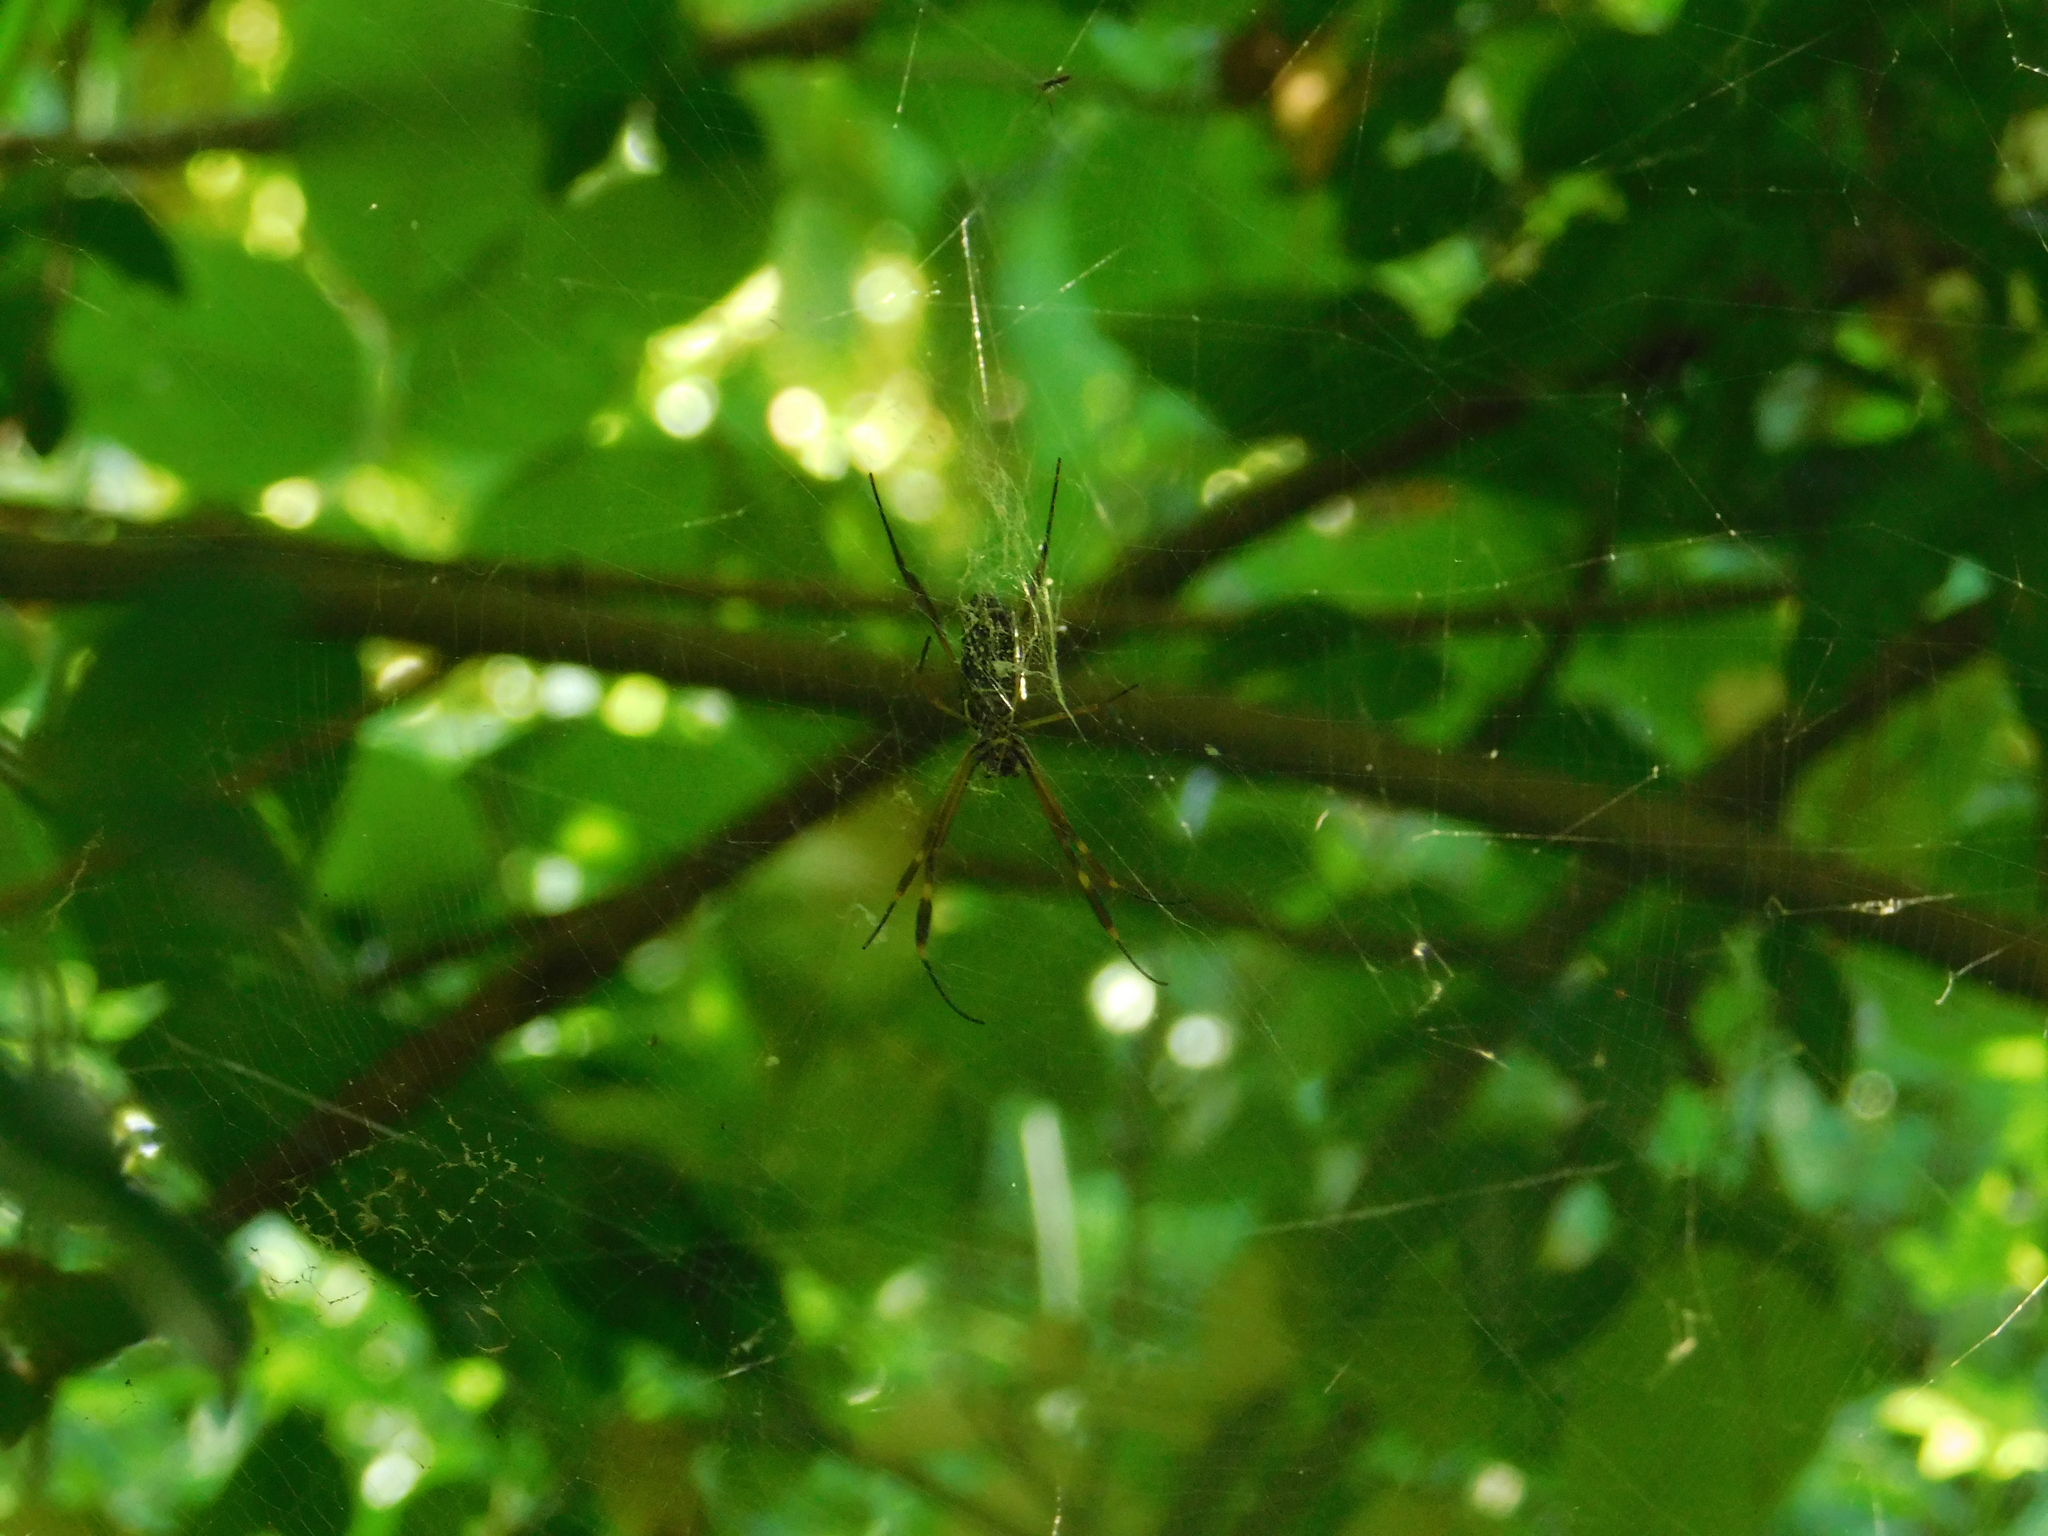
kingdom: Animalia
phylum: Arthropoda
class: Arachnida
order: Araneae
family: Araneidae
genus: Trichonephila
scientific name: Trichonephila clavipes
